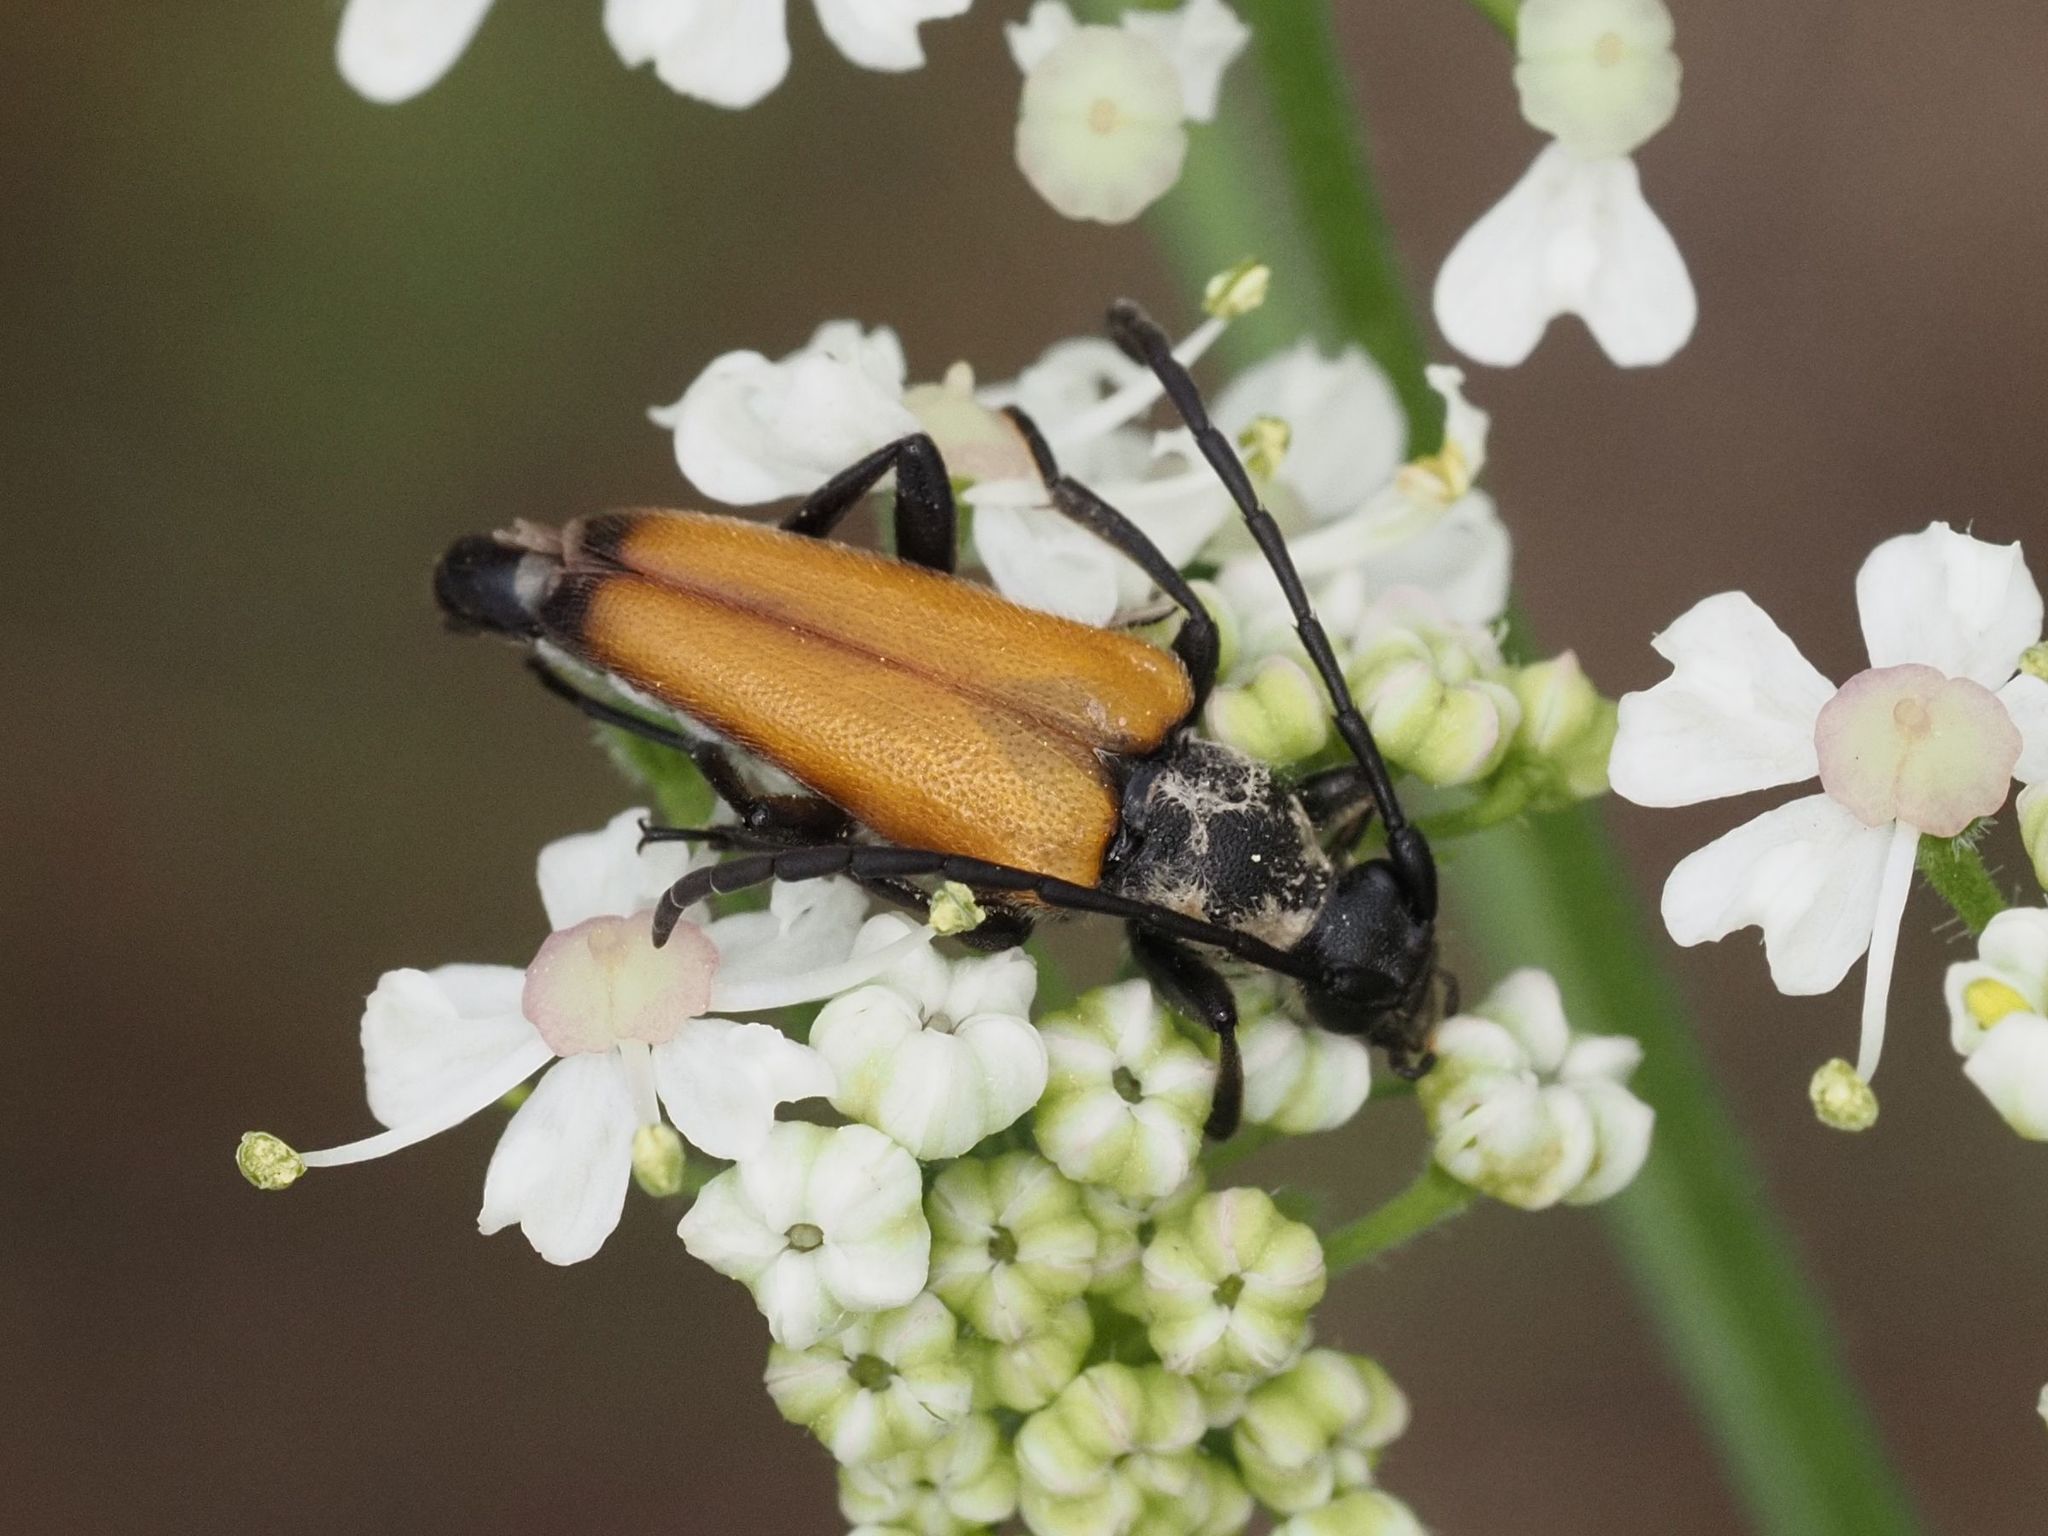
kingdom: Animalia
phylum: Arthropoda
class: Insecta
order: Coleoptera
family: Cerambycidae
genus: Paracorymbia
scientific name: Paracorymbia fulva
